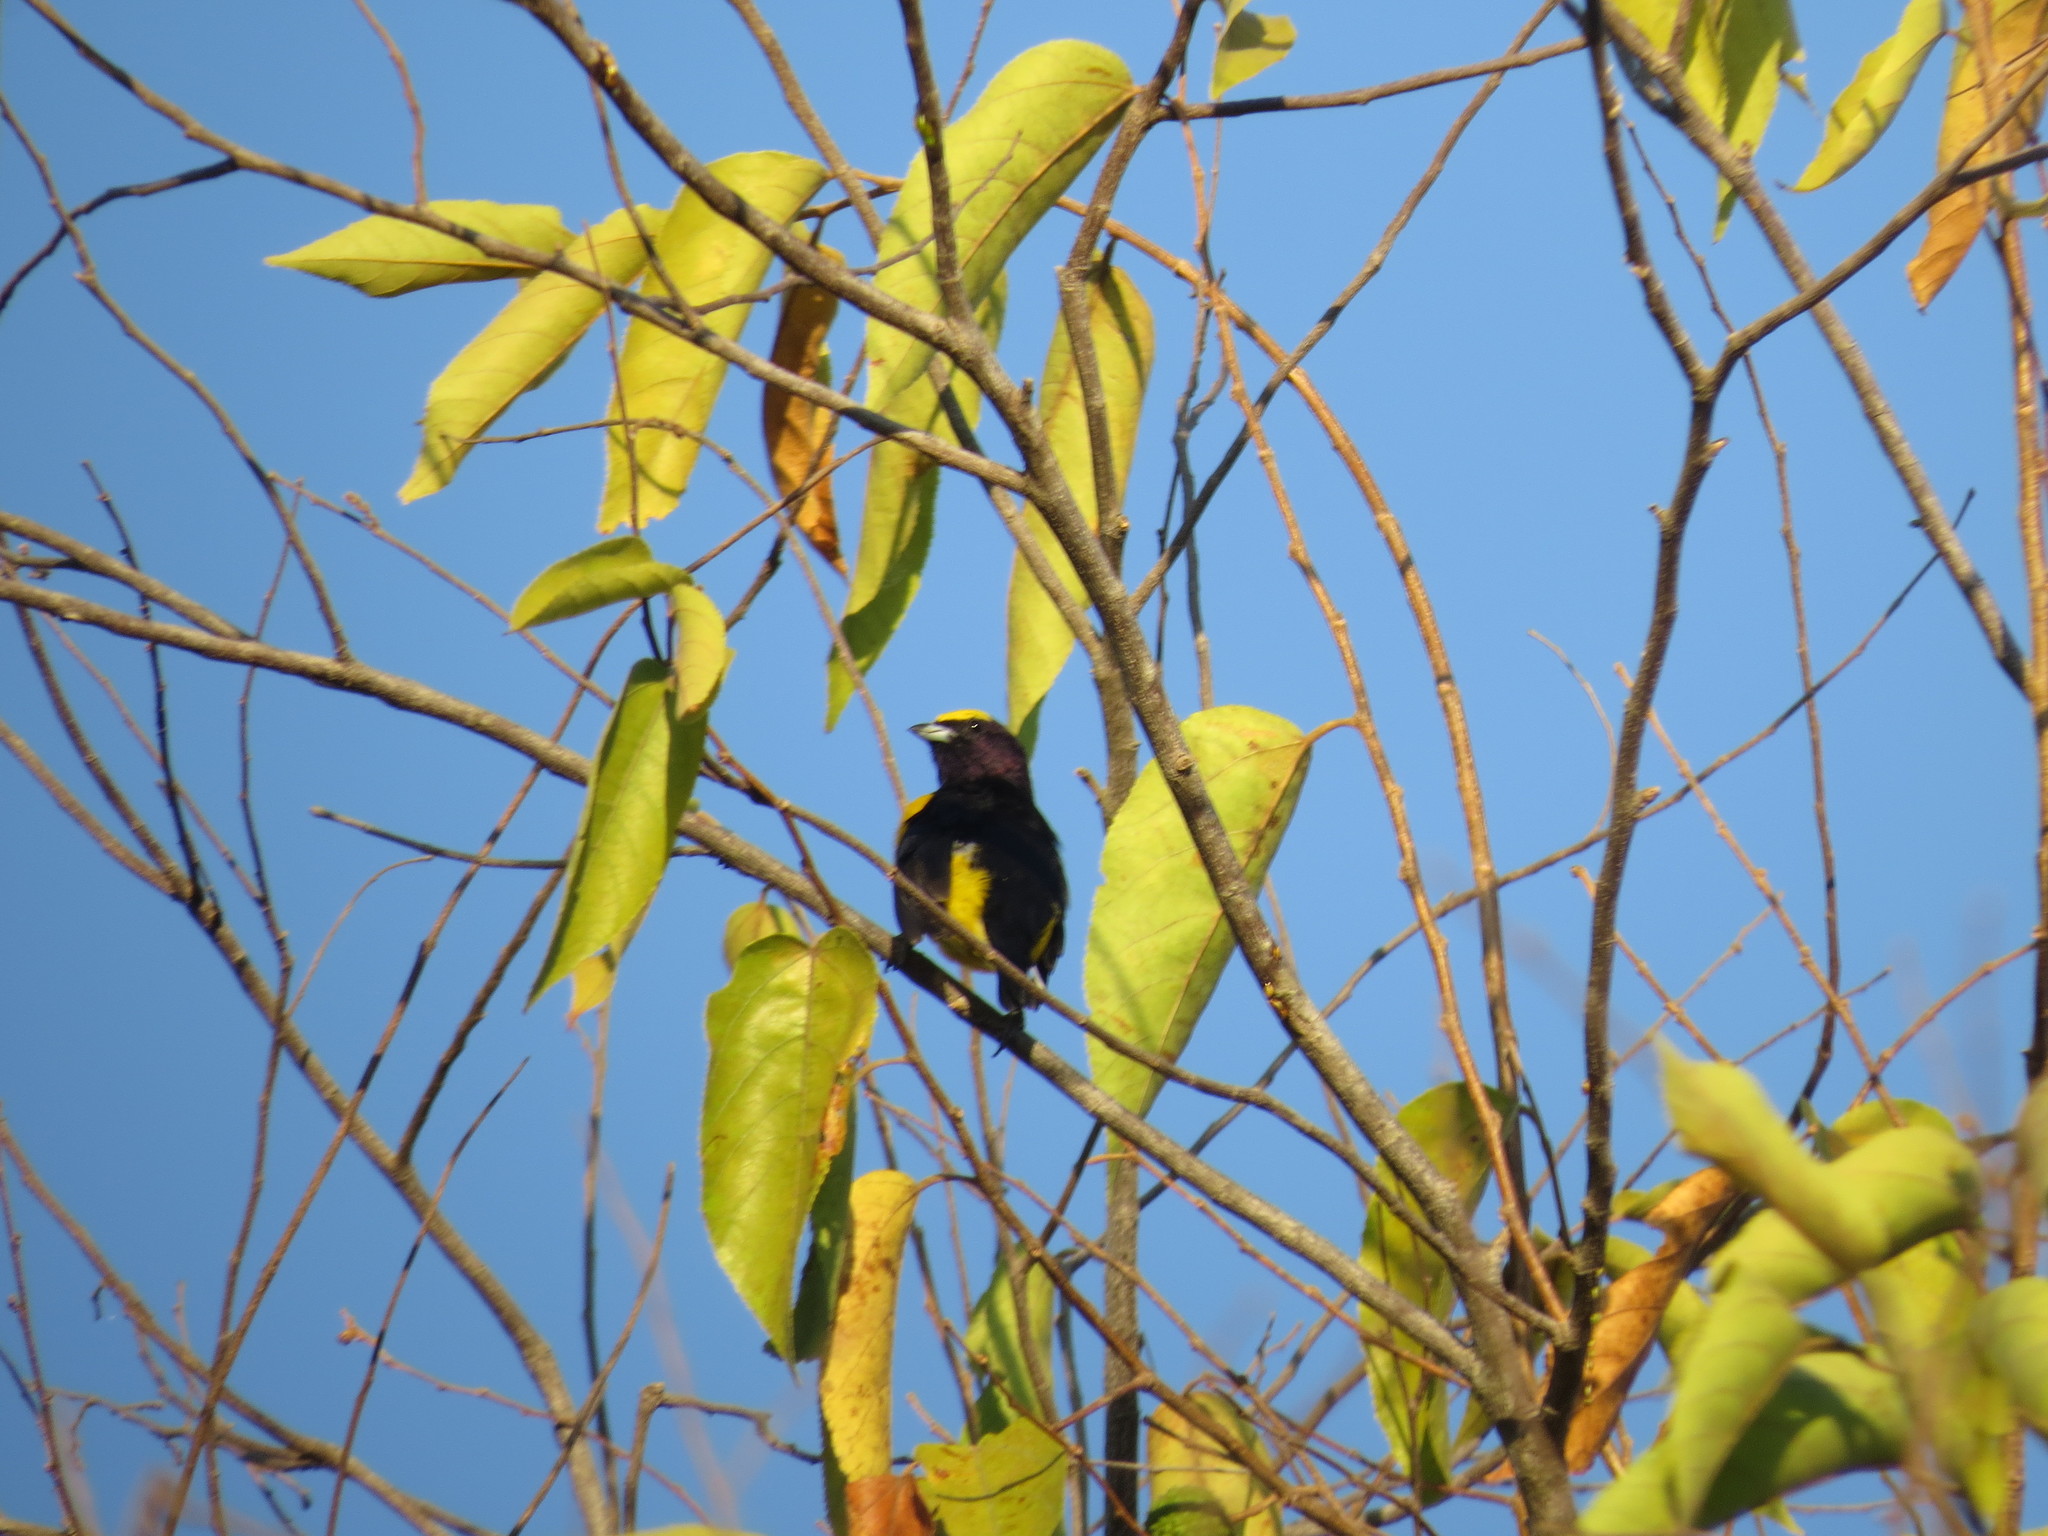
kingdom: Animalia
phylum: Chordata
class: Aves
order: Passeriformes
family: Fringillidae
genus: Euphonia
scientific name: Euphonia chlorotica
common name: Purple-throated euphonia
